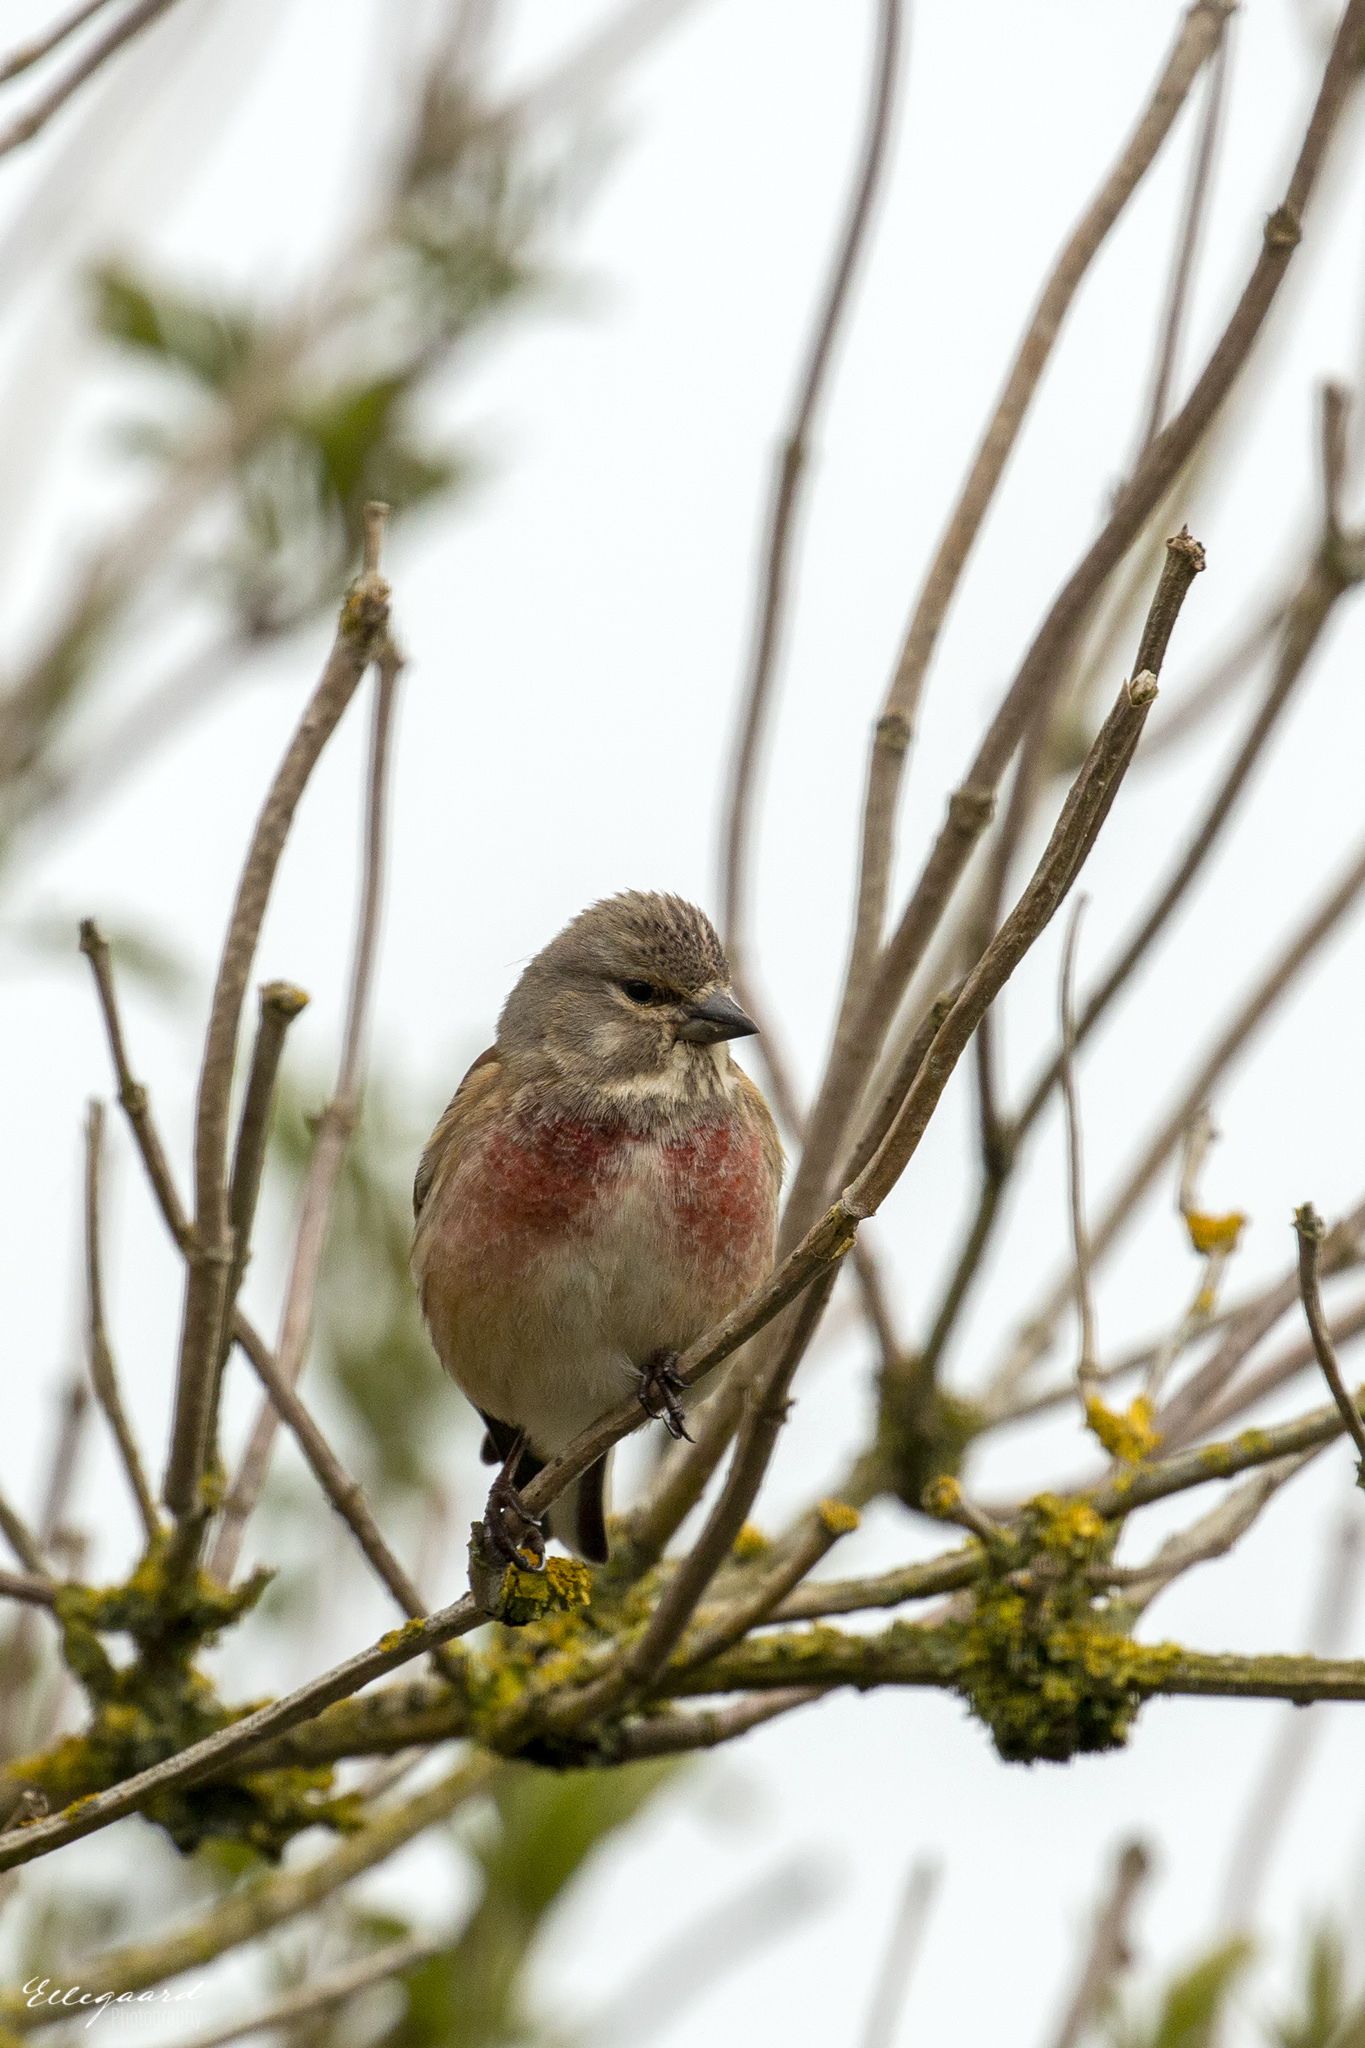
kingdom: Animalia
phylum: Chordata
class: Aves
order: Passeriformes
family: Fringillidae
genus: Linaria
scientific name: Linaria cannabina
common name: Common linnet
